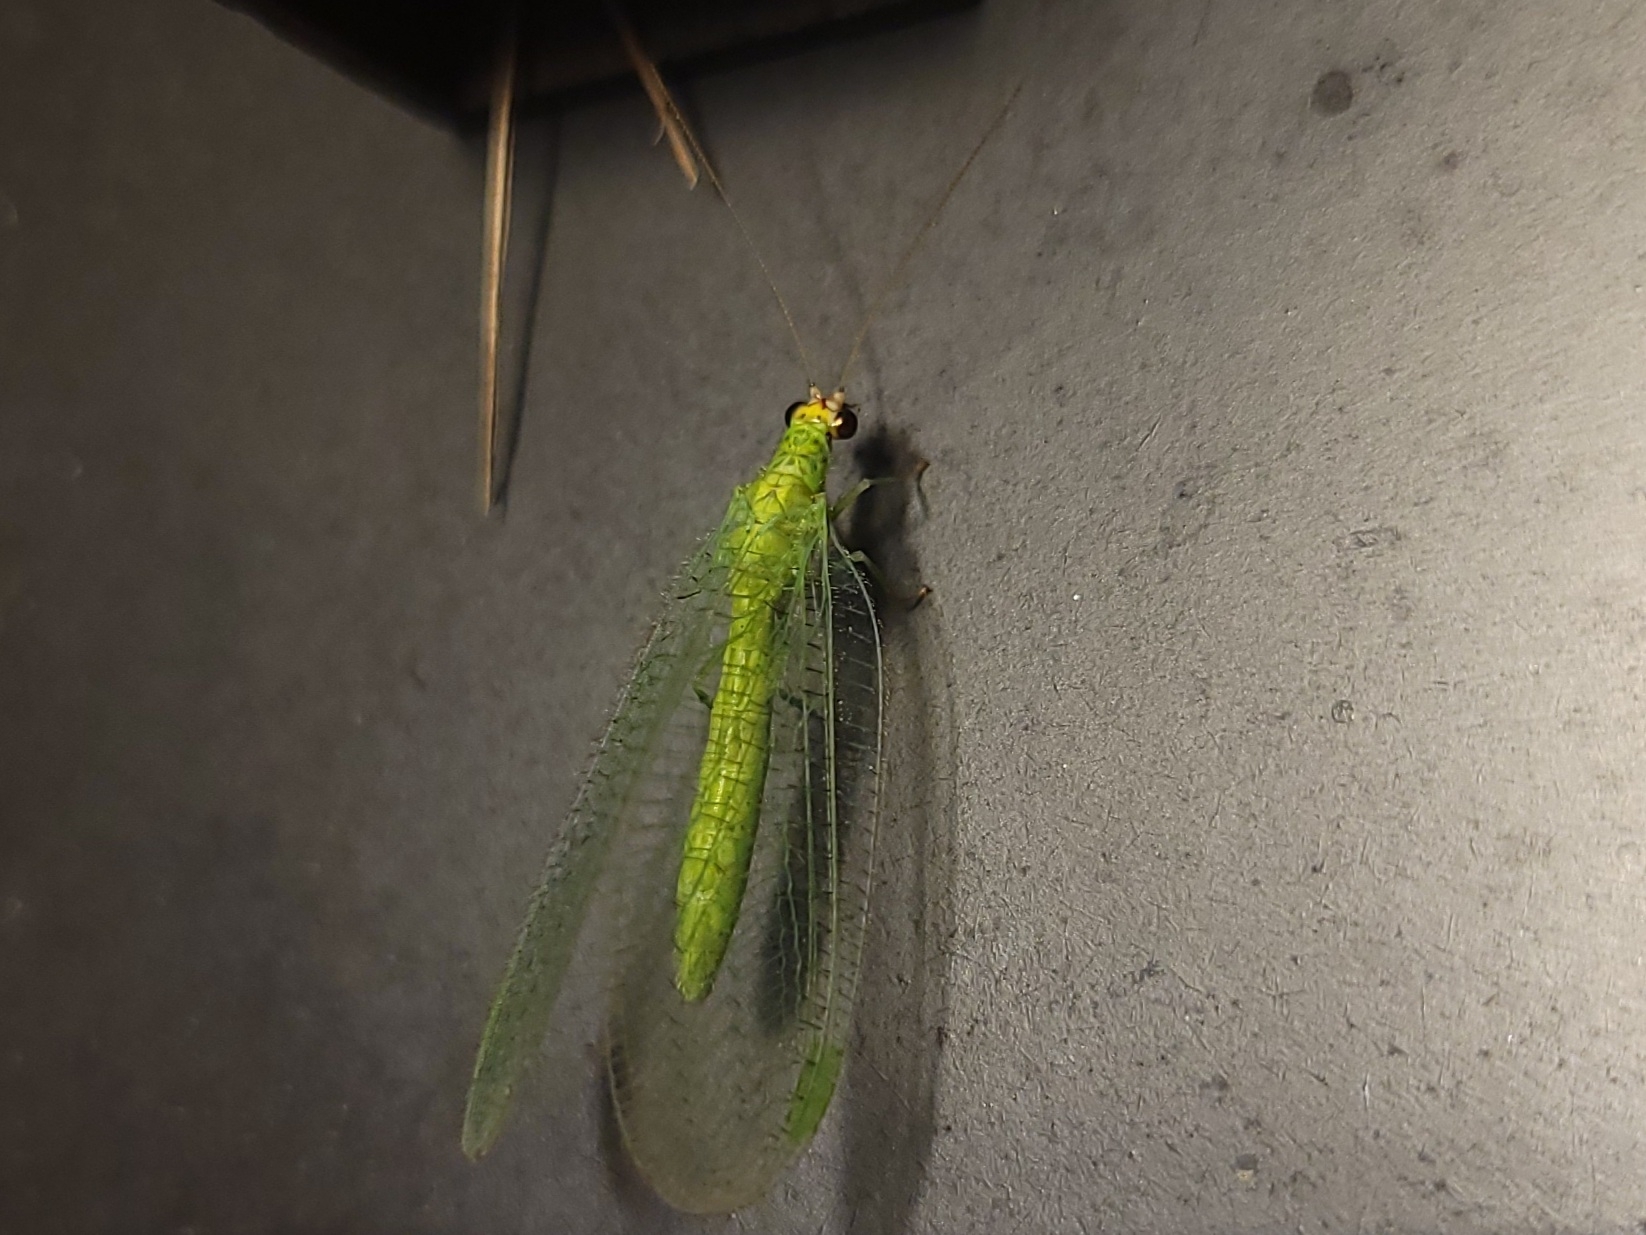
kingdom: Animalia
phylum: Arthropoda
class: Insecta
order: Neuroptera
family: Chrysopidae
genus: Chrysopa
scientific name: Chrysopa oculata
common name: Golden-eyed lacewing
